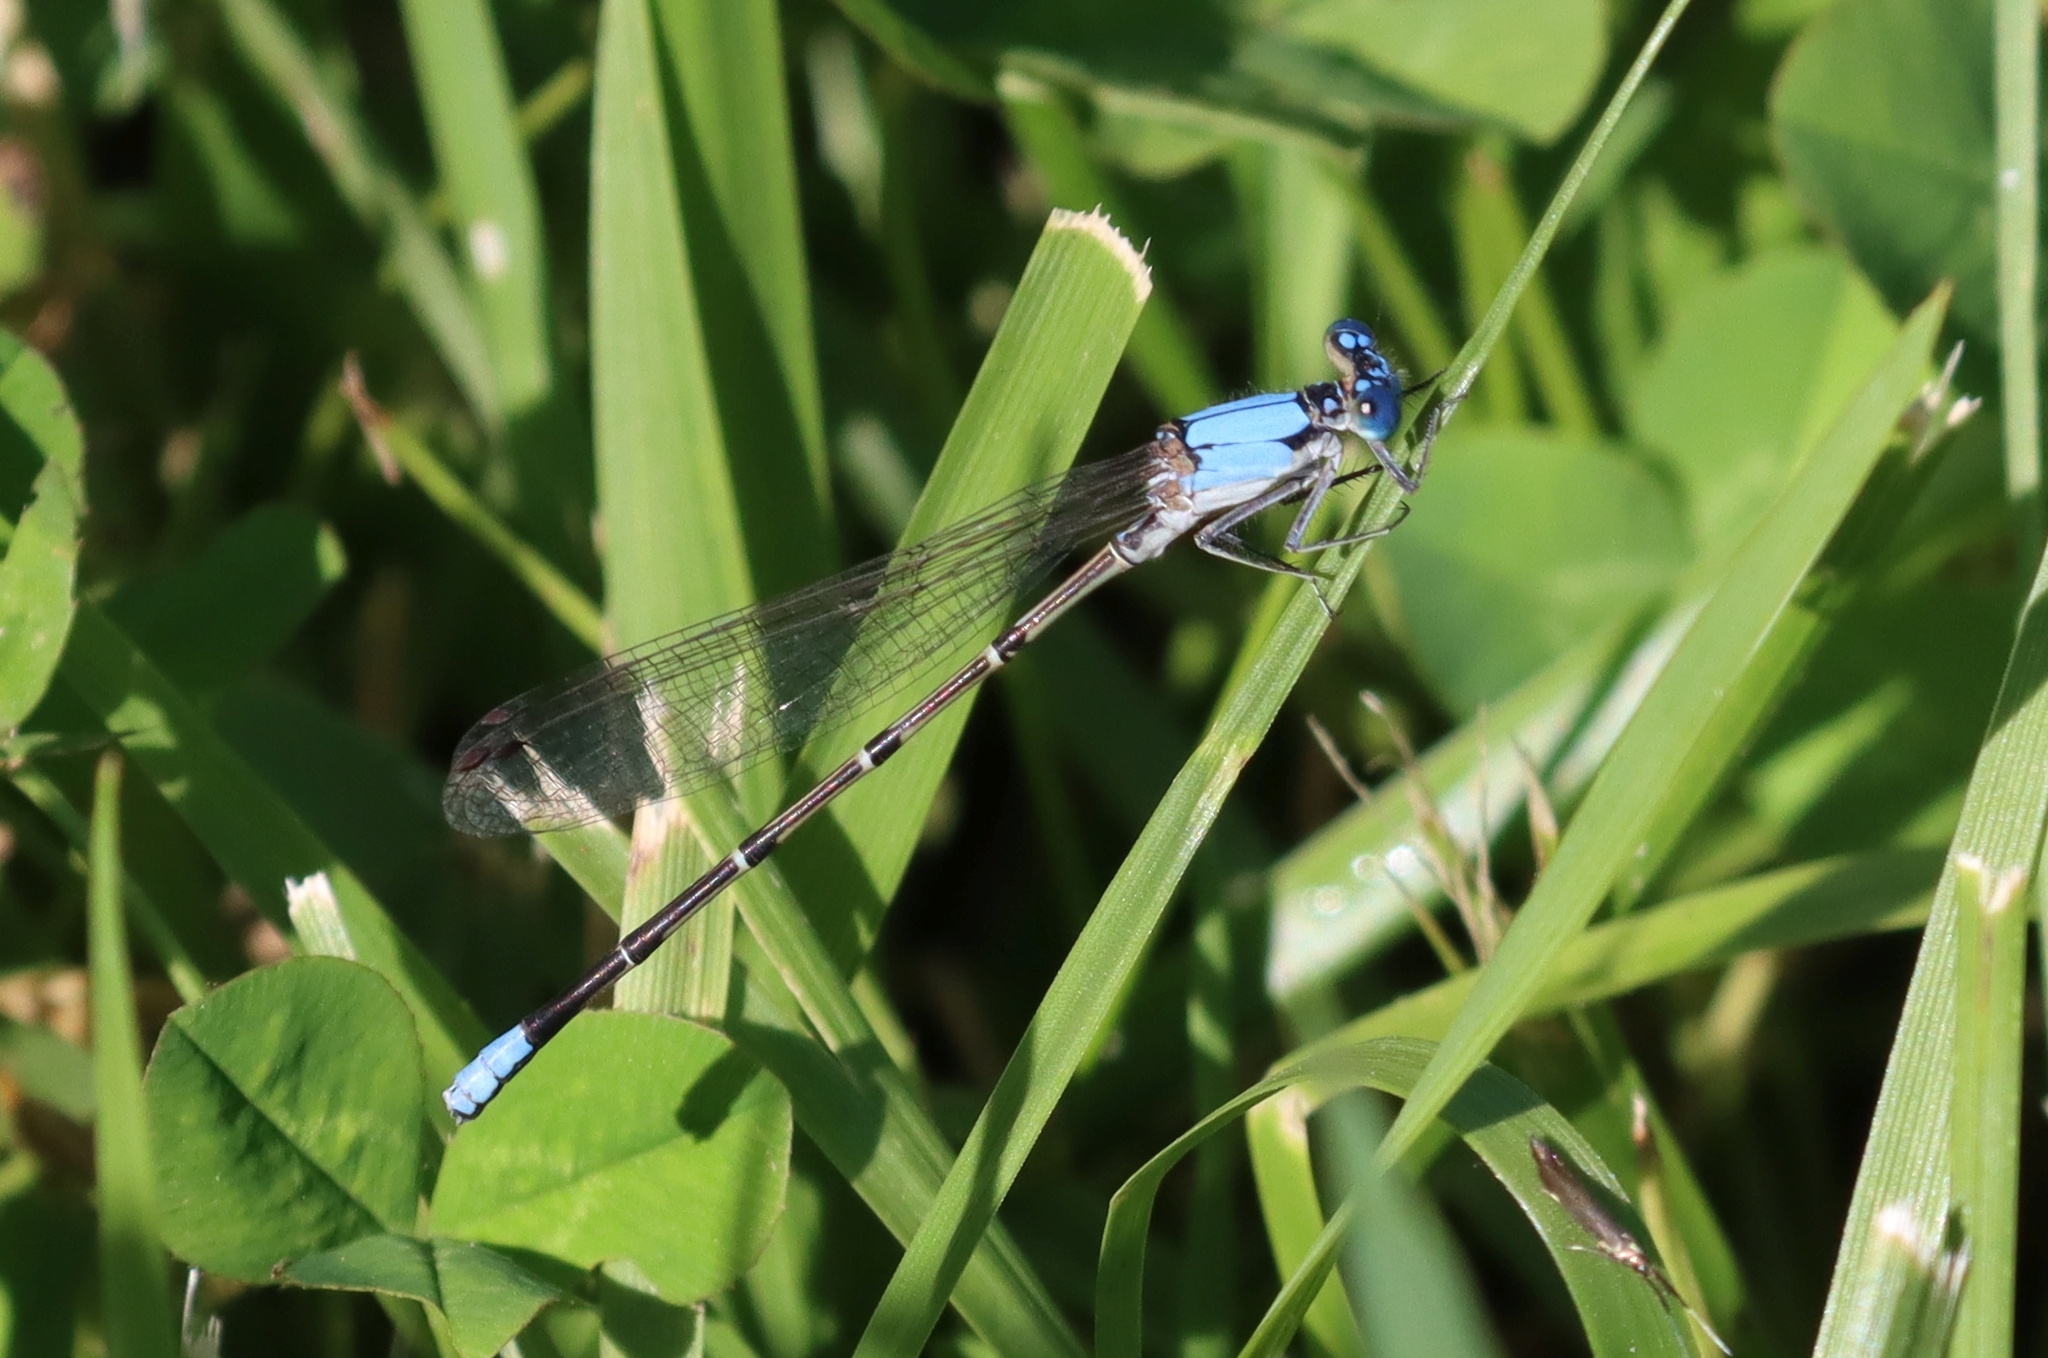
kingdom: Animalia
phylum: Arthropoda
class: Insecta
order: Odonata
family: Coenagrionidae
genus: Argia
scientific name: Argia apicalis
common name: Blue-fronted dancer
